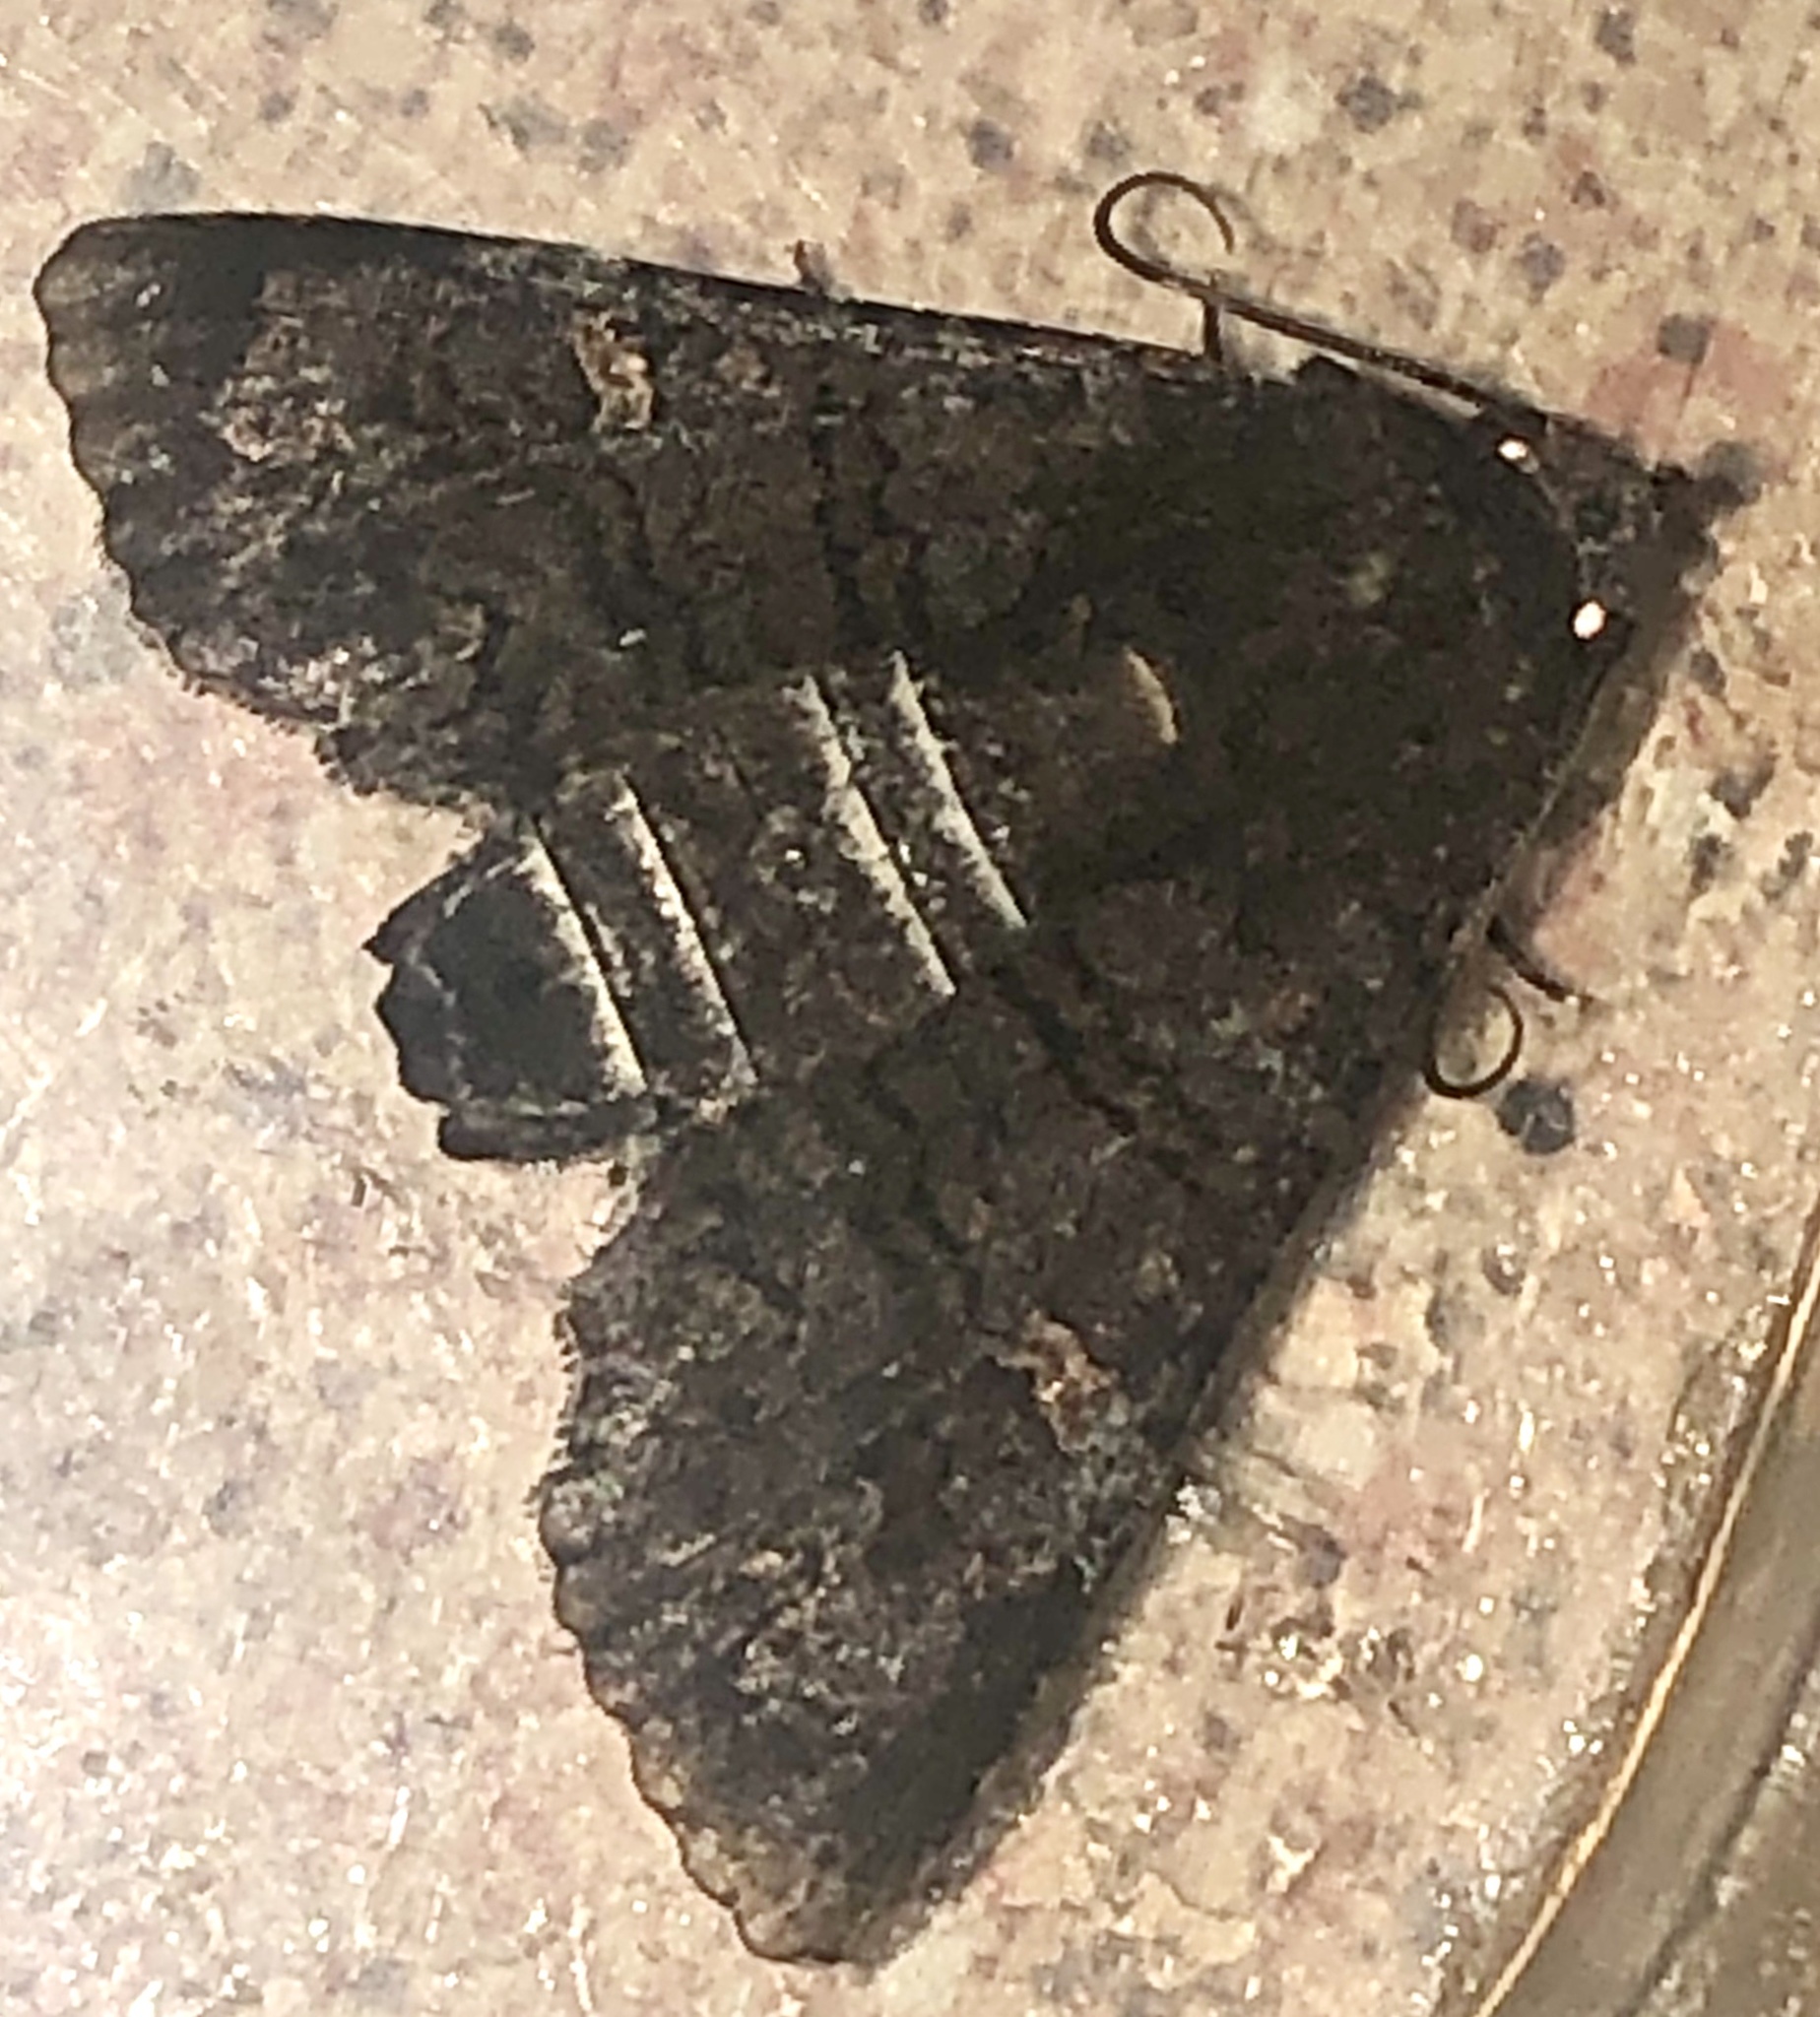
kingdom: Animalia
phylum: Arthropoda
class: Insecta
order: Lepidoptera
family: Euteliidae
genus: Pataeta
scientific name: Pataeta carbo
